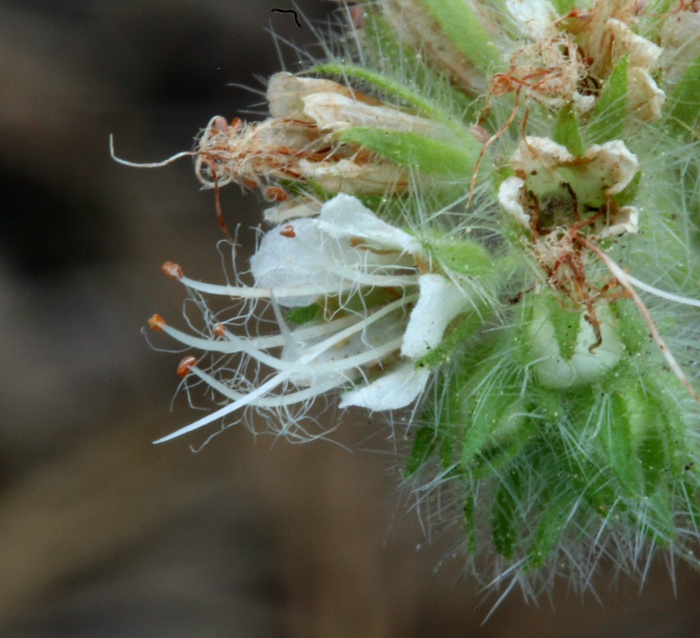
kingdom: Plantae
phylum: Tracheophyta
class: Magnoliopsida
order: Boraginales
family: Hydrophyllaceae
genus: Phacelia
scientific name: Phacelia heterophylla
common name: Variable-leaved phacelia
